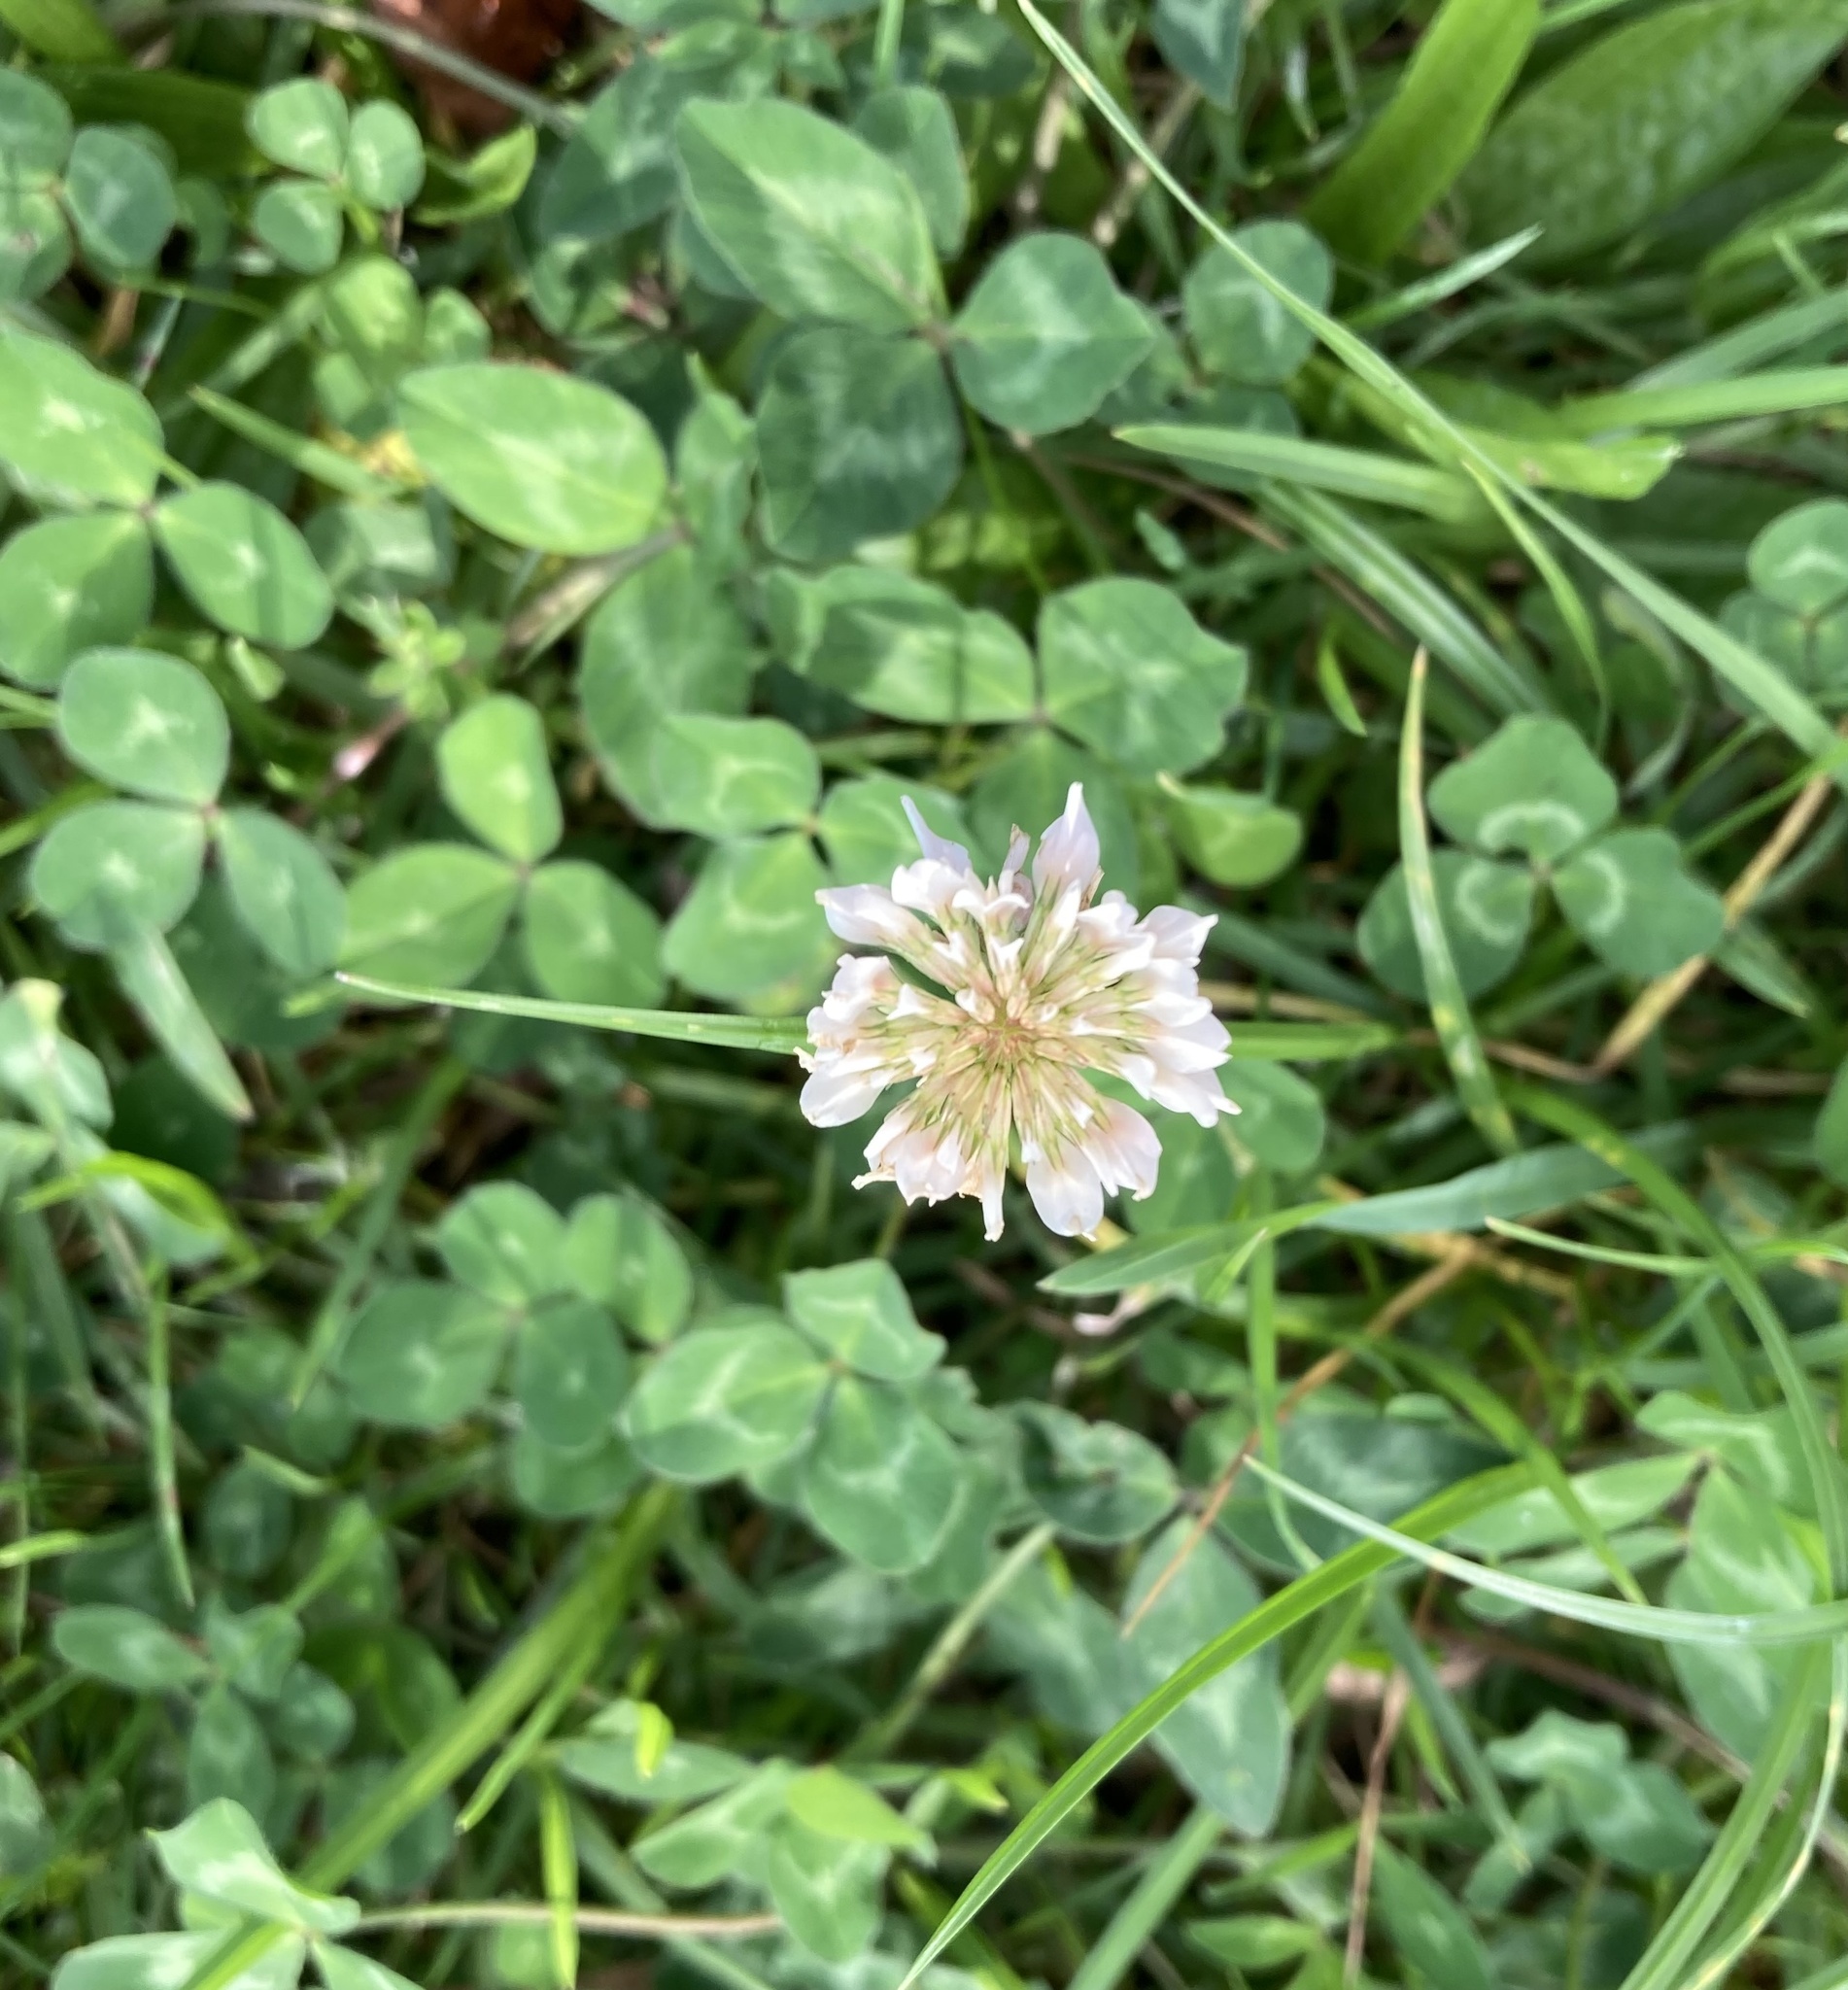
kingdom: Plantae
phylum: Tracheophyta
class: Magnoliopsida
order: Fabales
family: Fabaceae
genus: Trifolium
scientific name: Trifolium repens
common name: White clover
